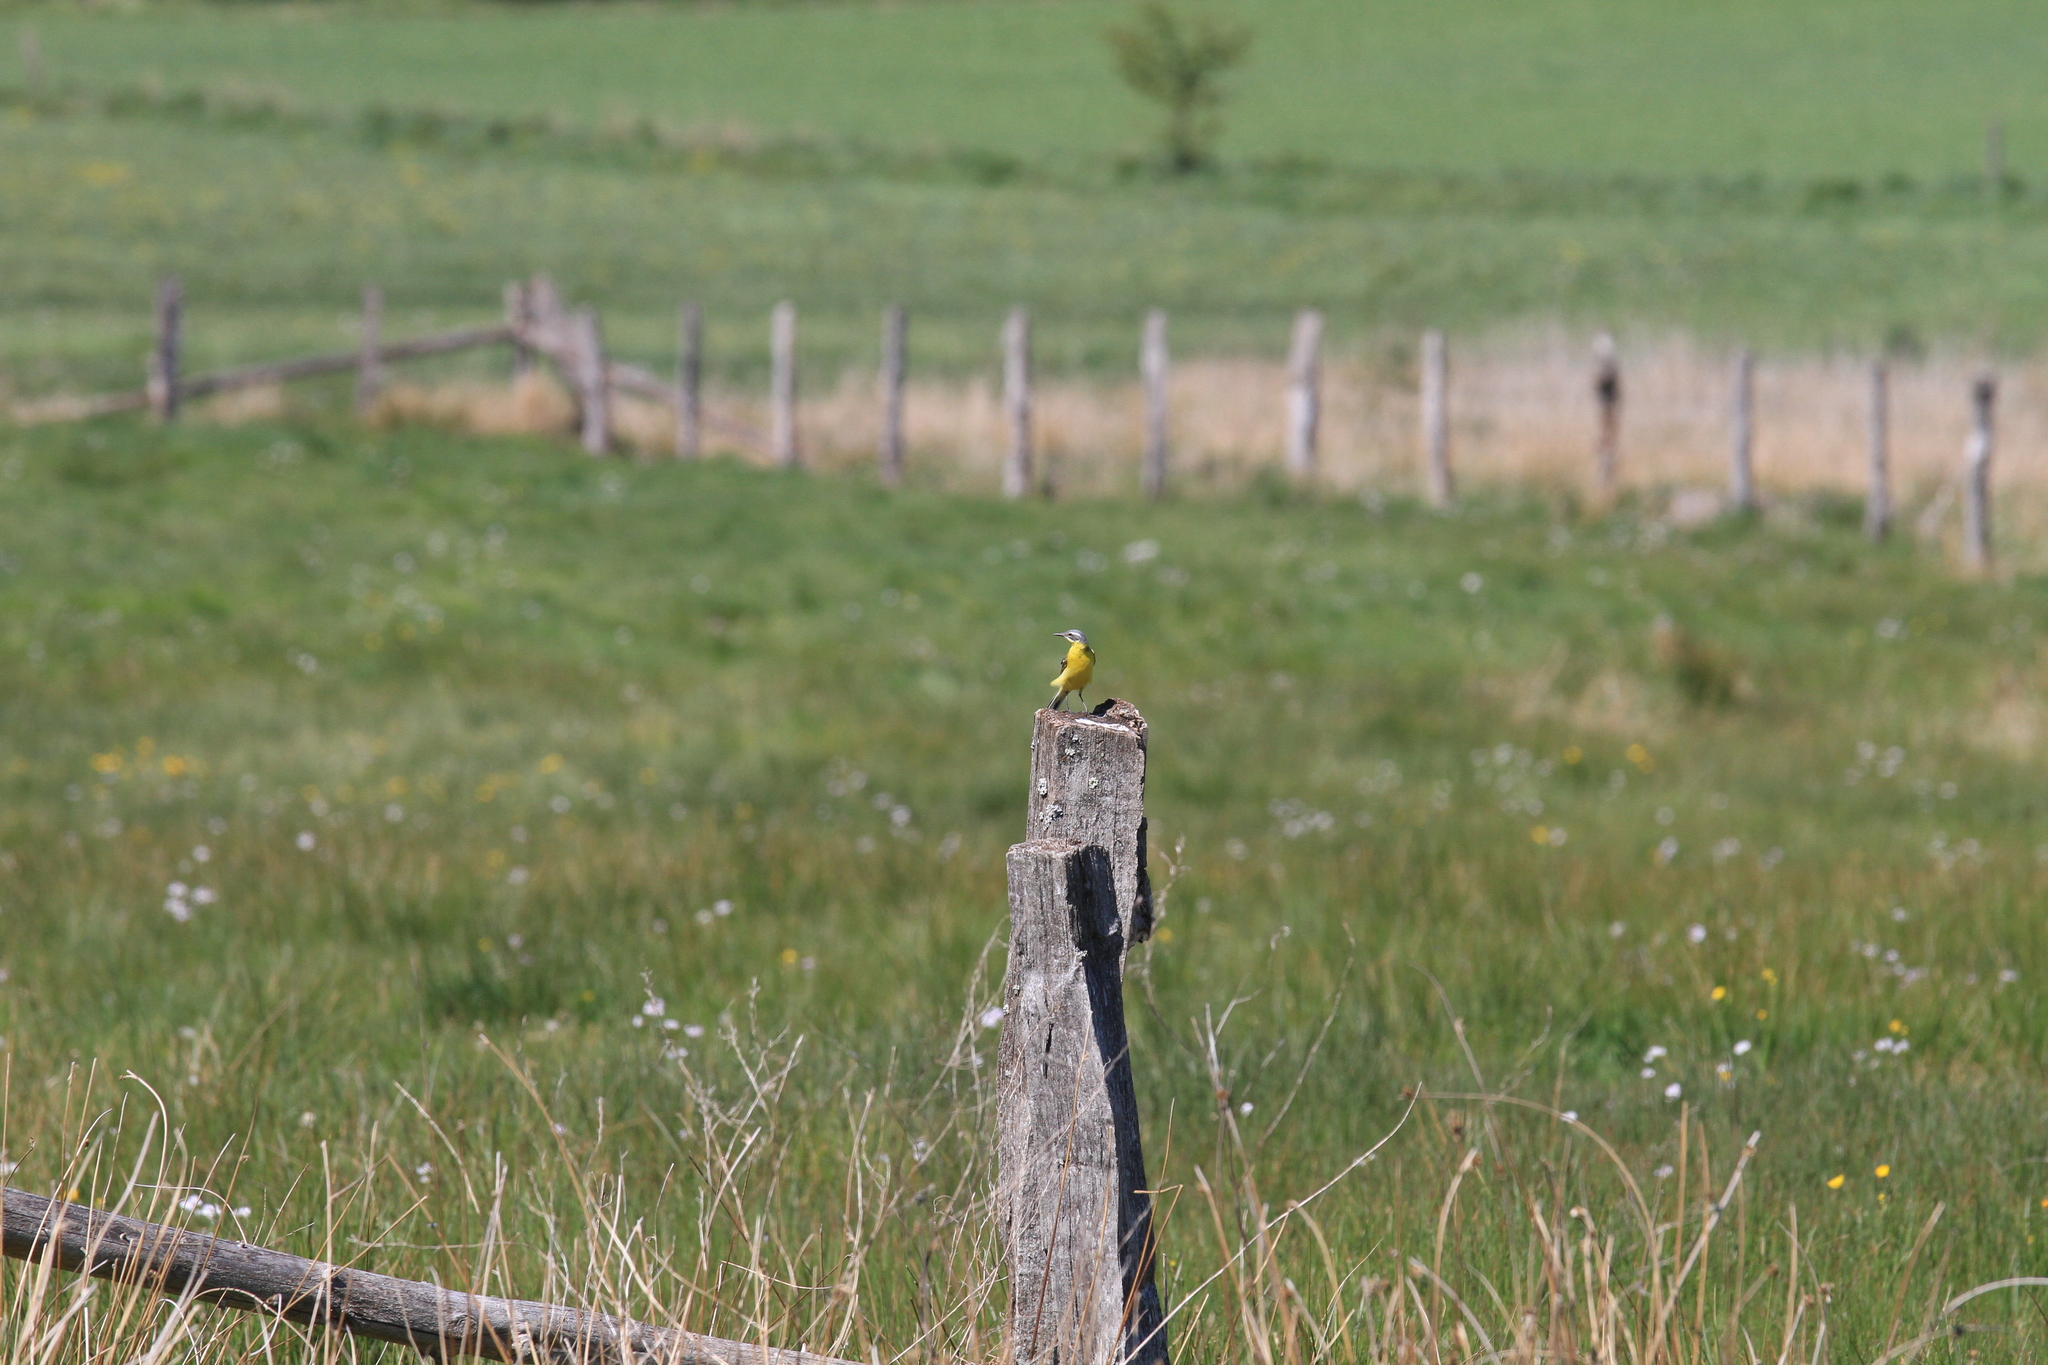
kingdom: Animalia
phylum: Chordata
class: Aves
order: Passeriformes
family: Motacillidae
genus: Motacilla
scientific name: Motacilla flava
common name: Western yellow wagtail
